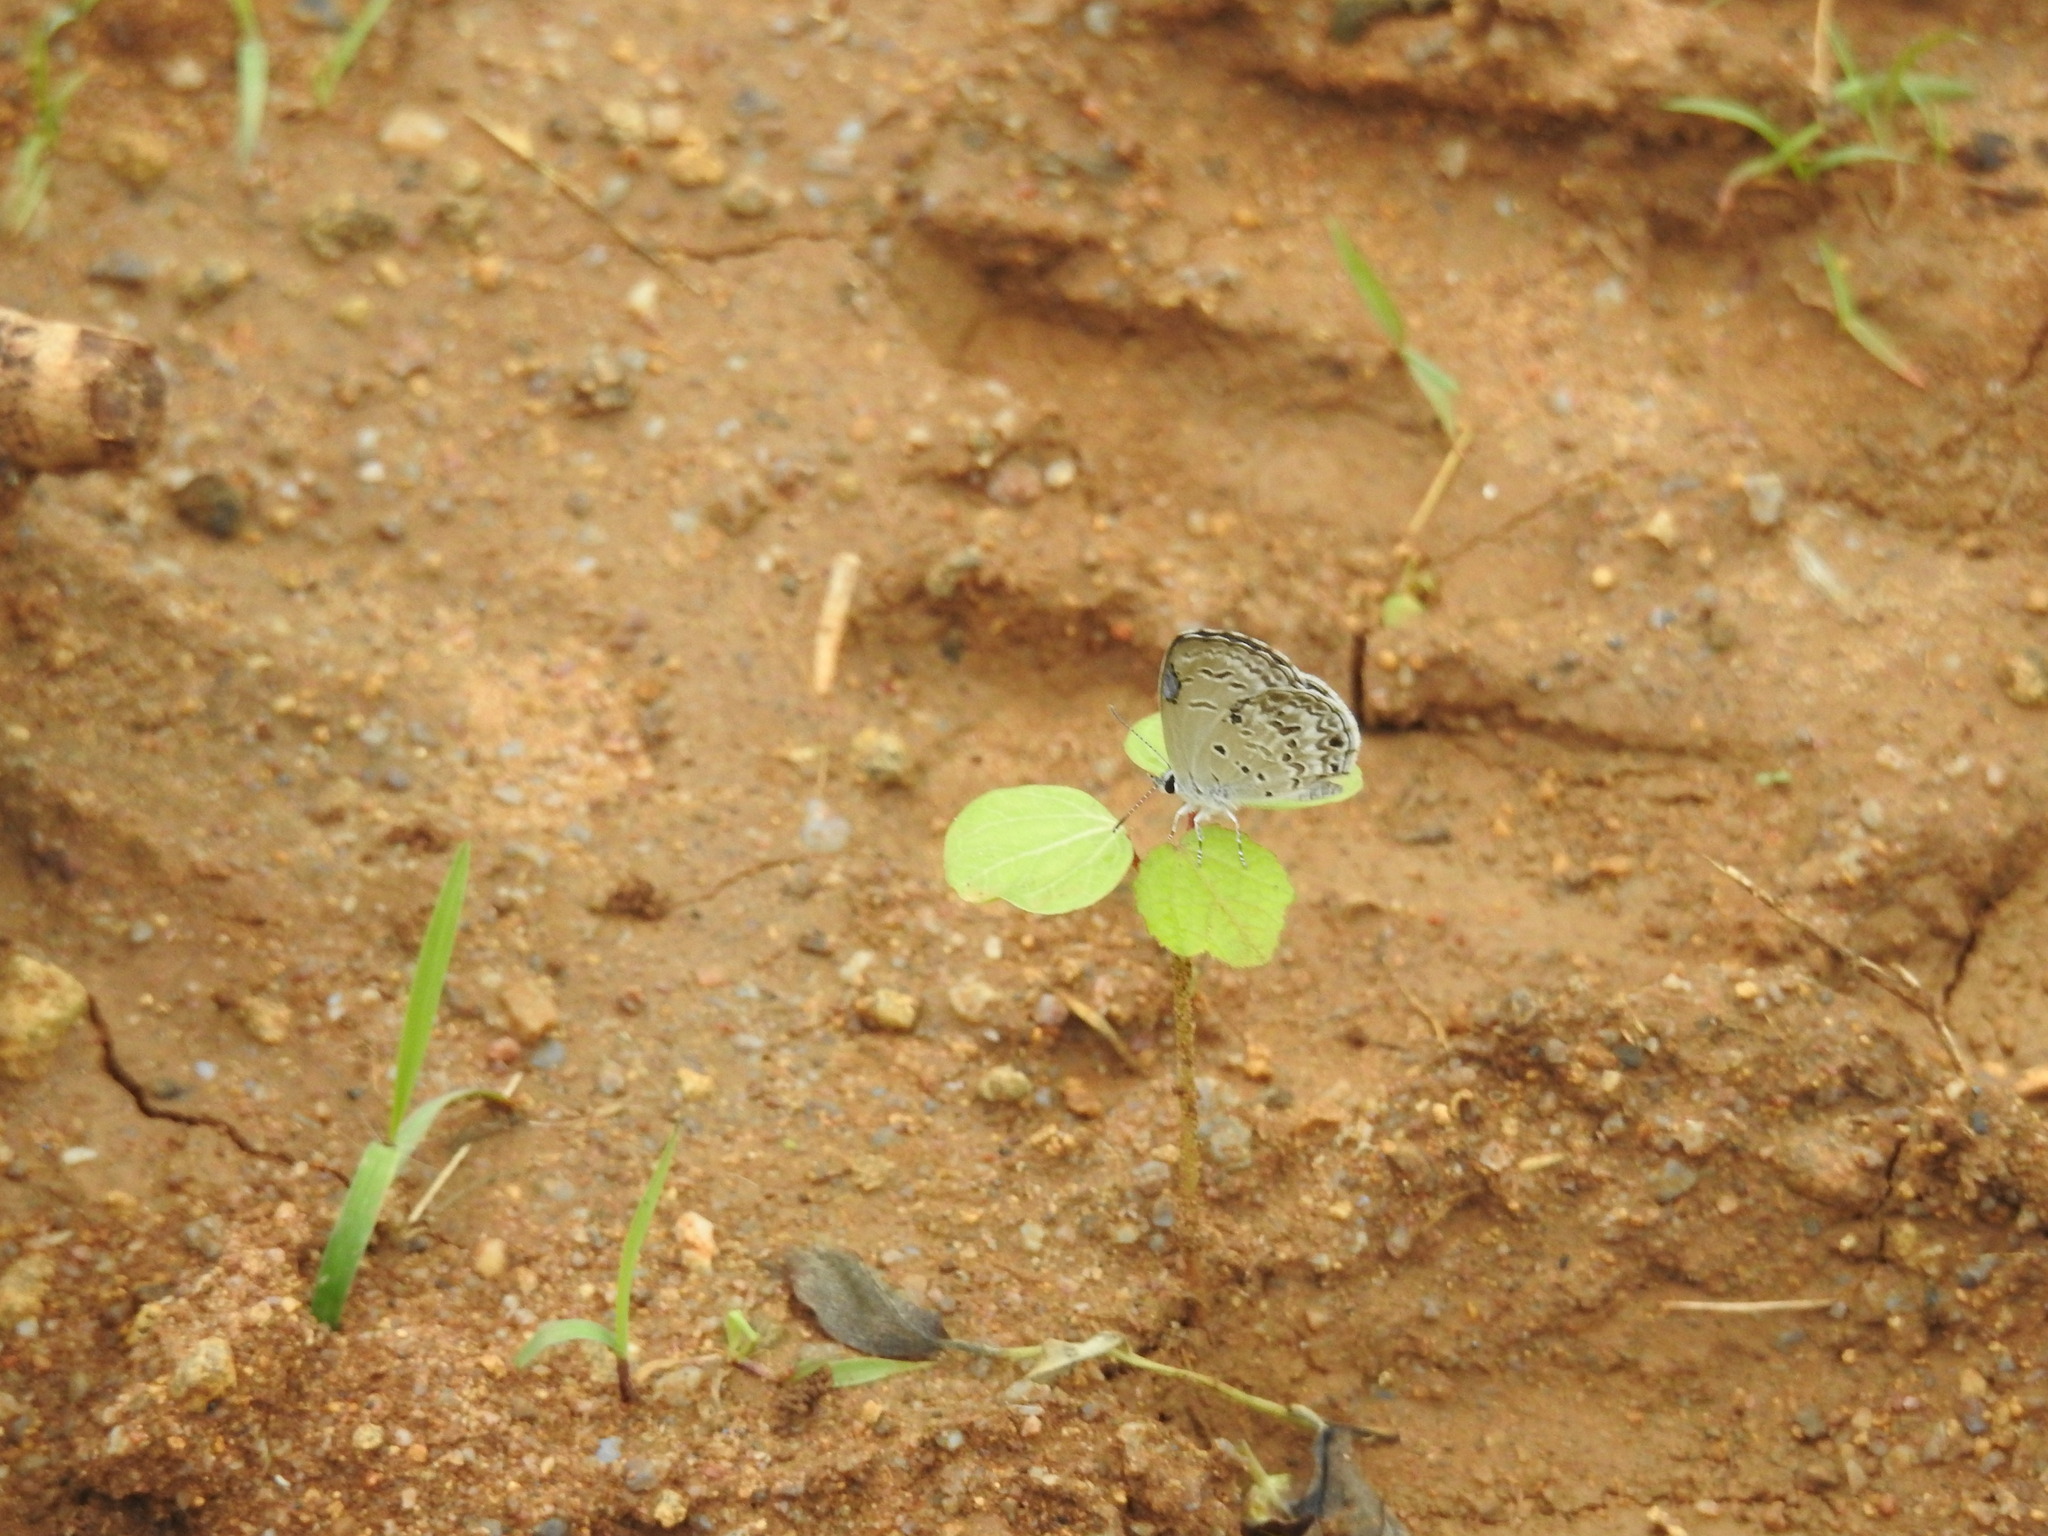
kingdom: Animalia
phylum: Arthropoda
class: Insecta
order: Lepidoptera
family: Lycaenidae
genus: Chilades
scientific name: Chilades laius
